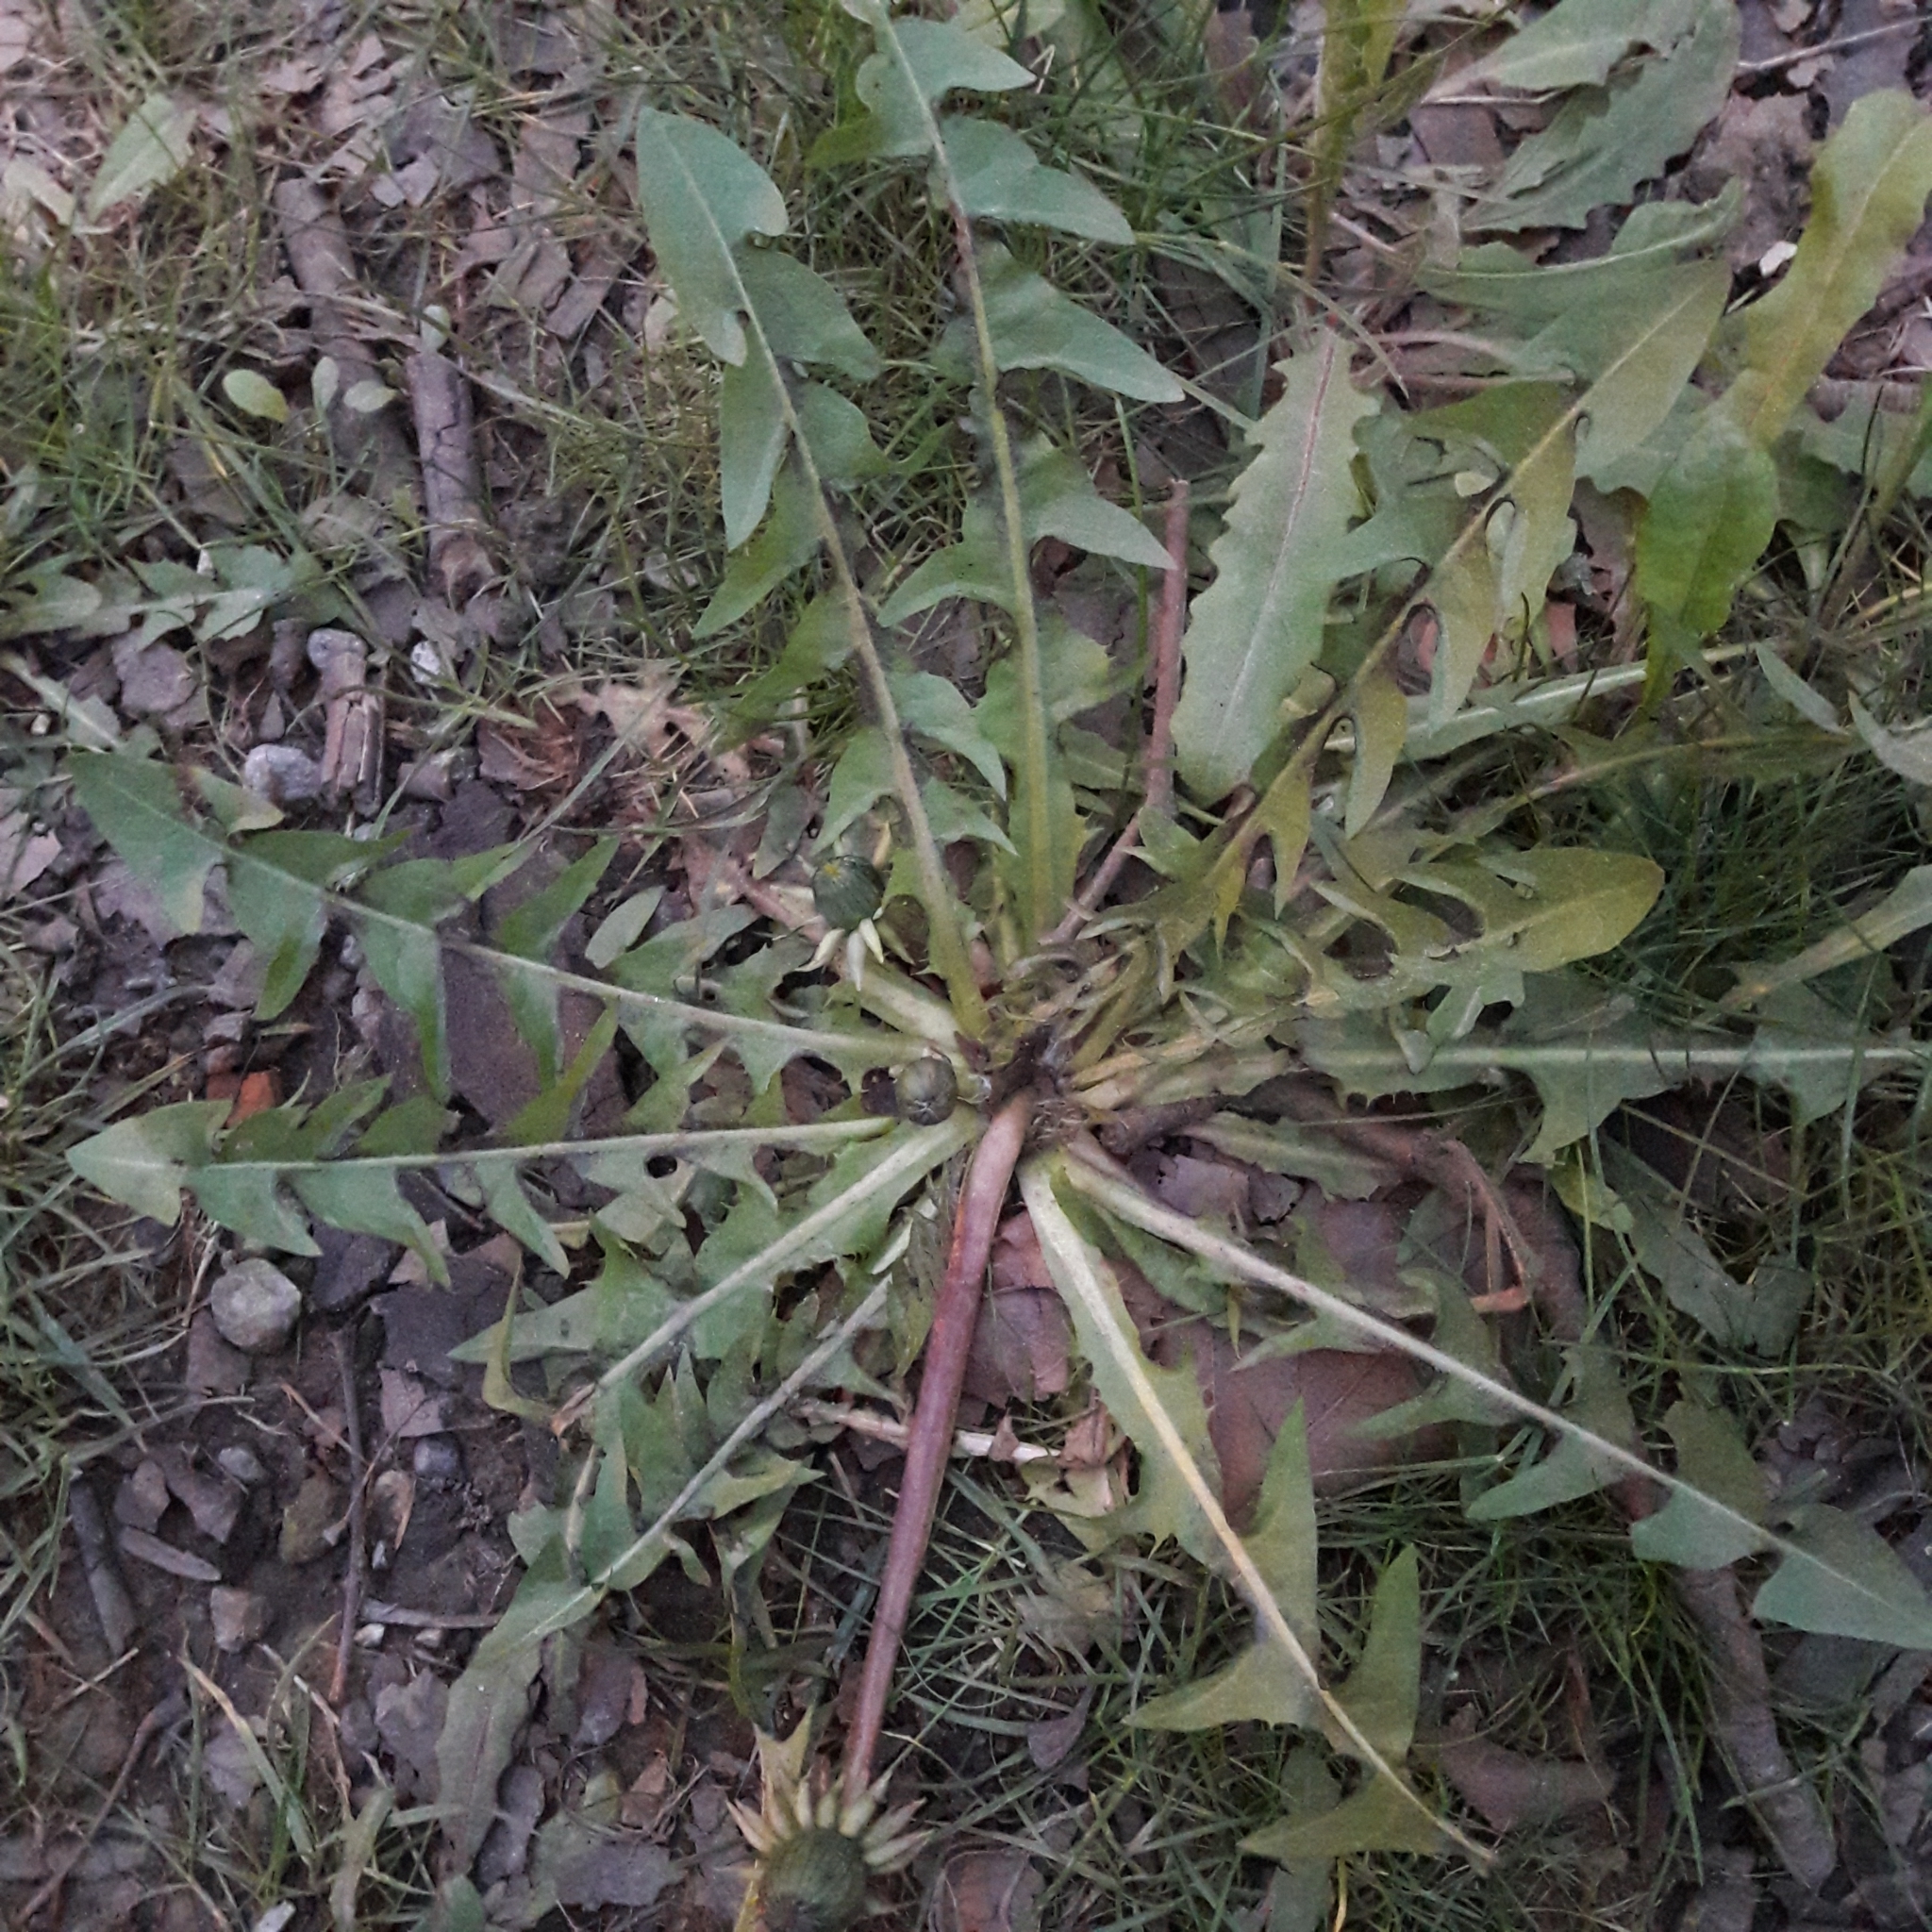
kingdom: Plantae
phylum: Tracheophyta
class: Magnoliopsida
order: Asterales
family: Asteraceae
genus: Taraxacum
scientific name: Taraxacum officinale
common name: Common dandelion
